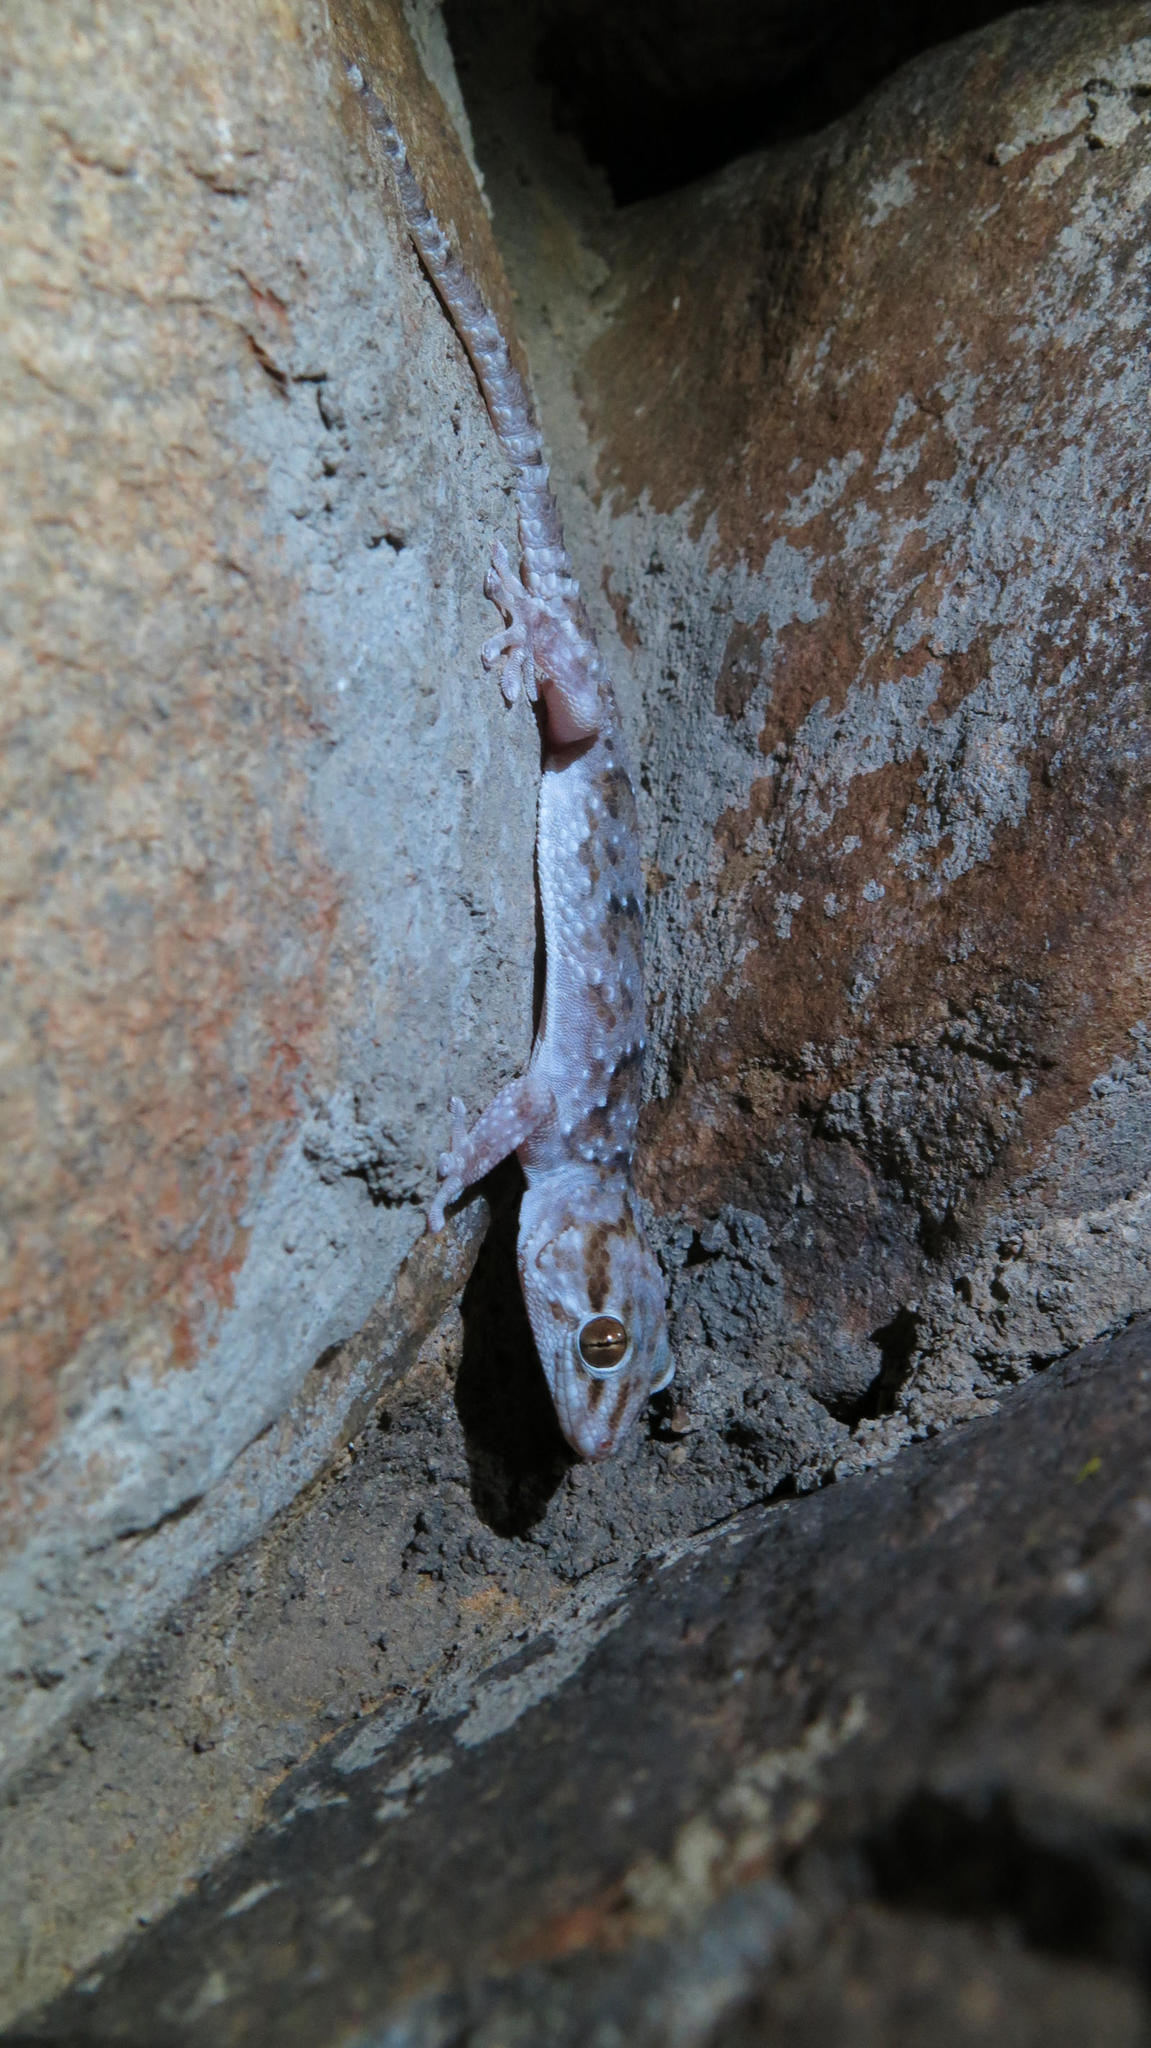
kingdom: Animalia
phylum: Chordata
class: Squamata
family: Gekkonidae
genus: Chondrodactylus
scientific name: Chondrodactylus bibronii
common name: Bibron's gecko
